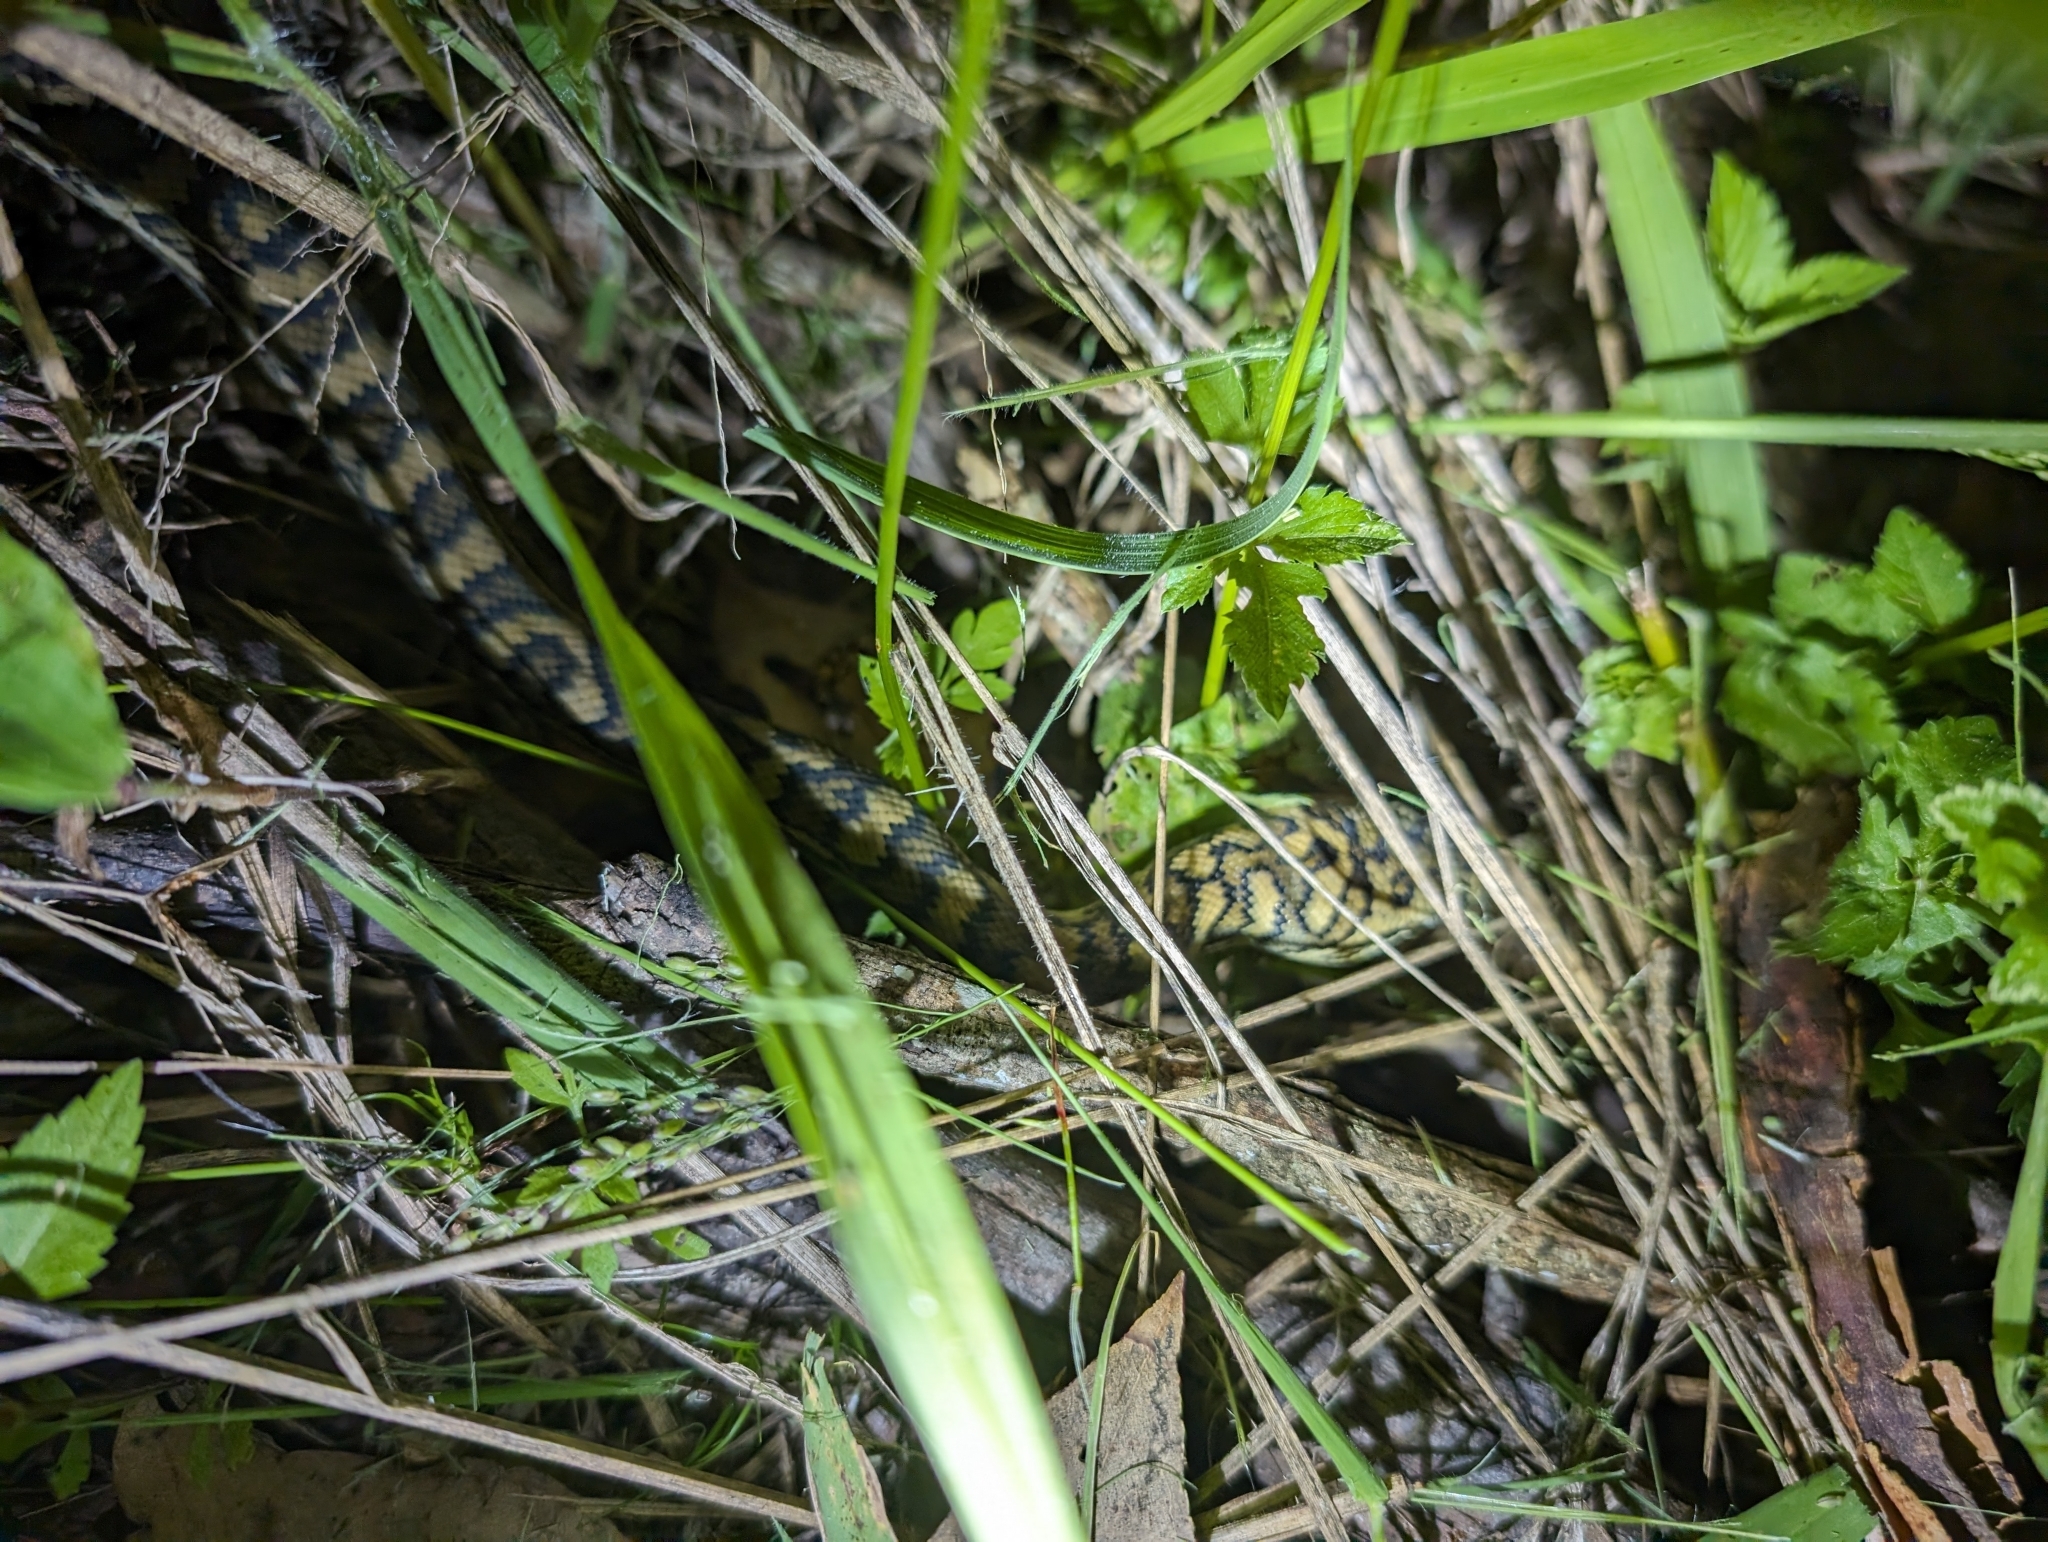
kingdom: Animalia
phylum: Chordata
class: Squamata
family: Pythonidae
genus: Morelia
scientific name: Morelia spilota
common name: Carpet python
